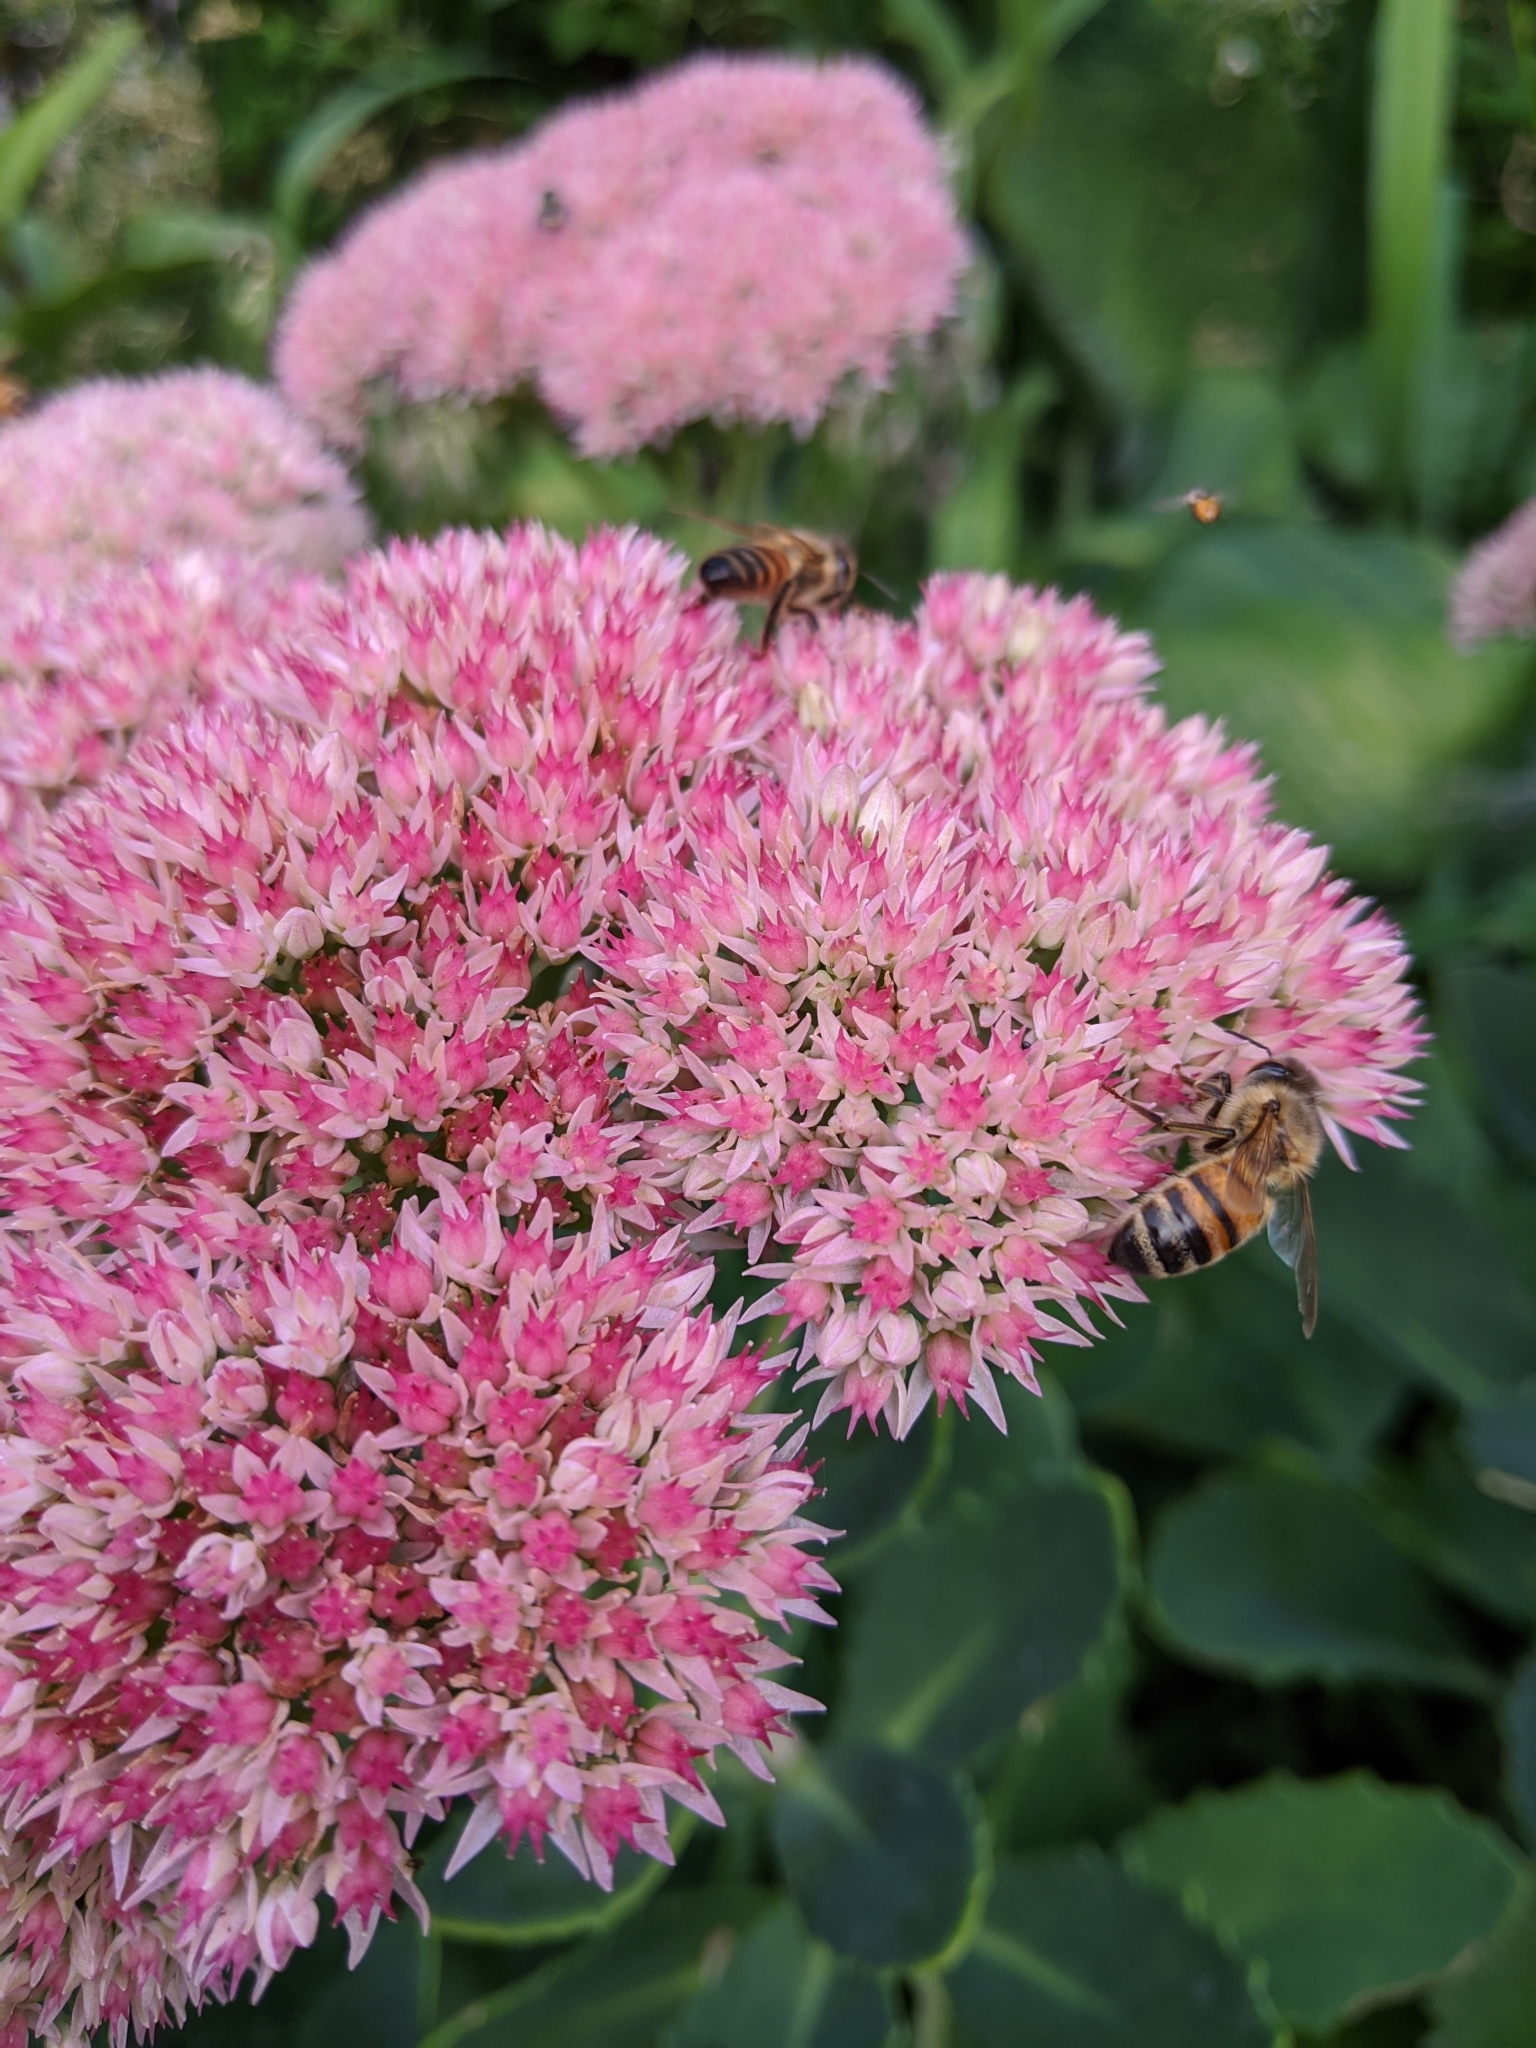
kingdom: Animalia
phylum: Arthropoda
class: Insecta
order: Hymenoptera
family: Apidae
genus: Apis
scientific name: Apis mellifera
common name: Honey bee
